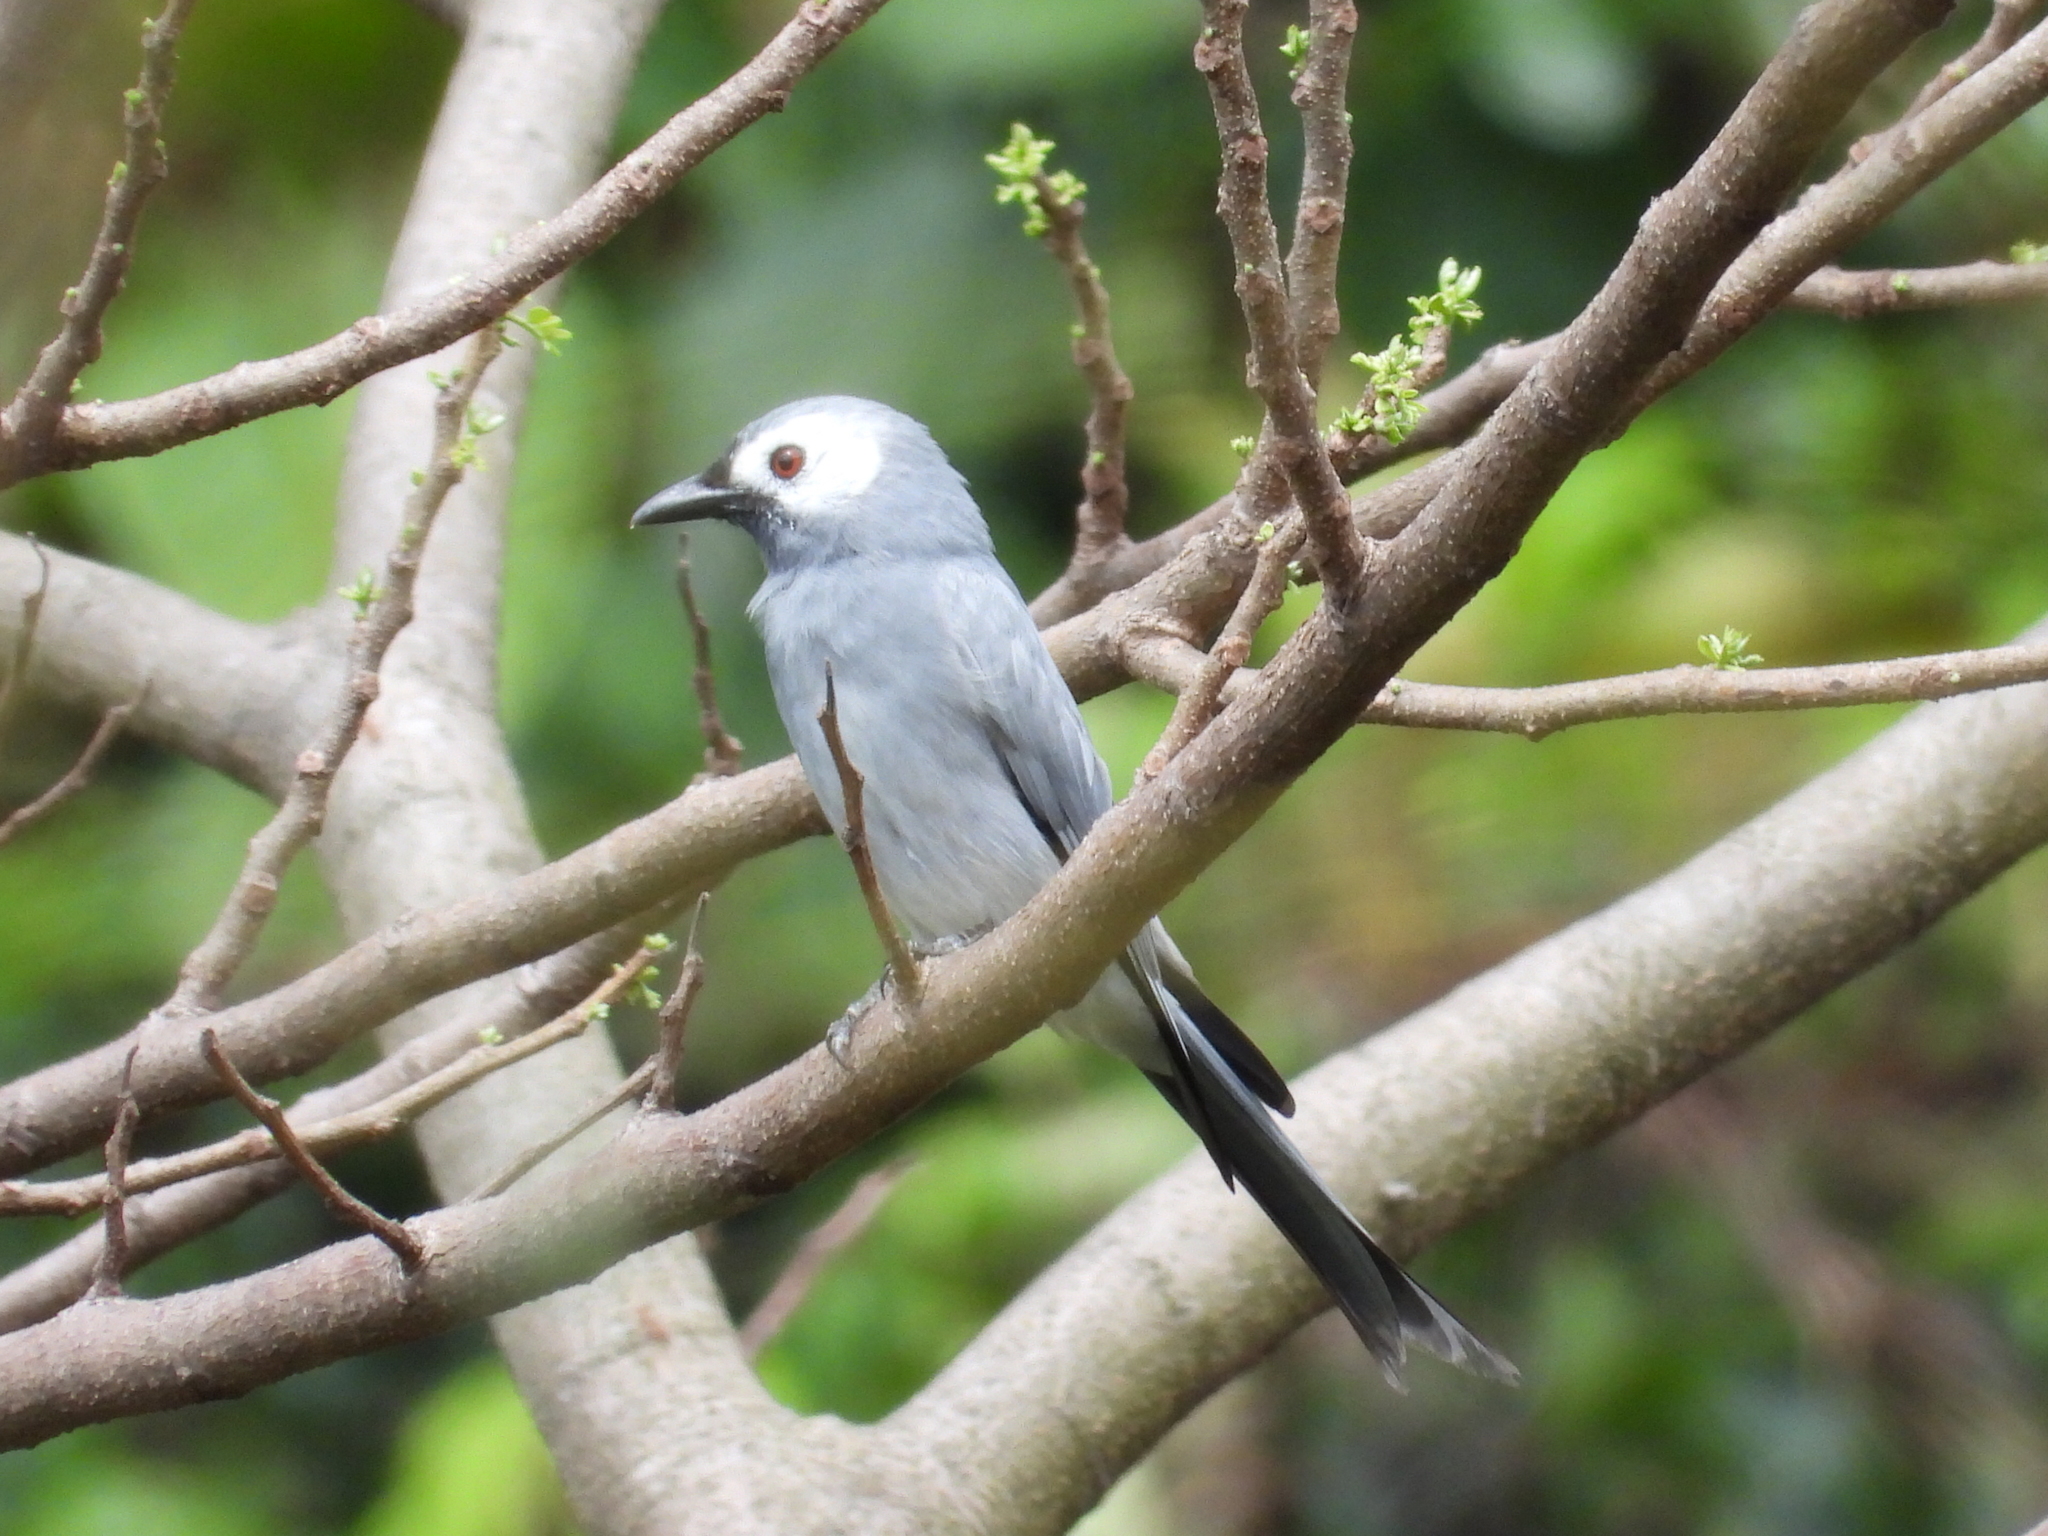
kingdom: Animalia
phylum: Chordata
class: Aves
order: Passeriformes
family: Dicruridae
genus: Dicrurus
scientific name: Dicrurus leucophaeus
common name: Ashy drongo
